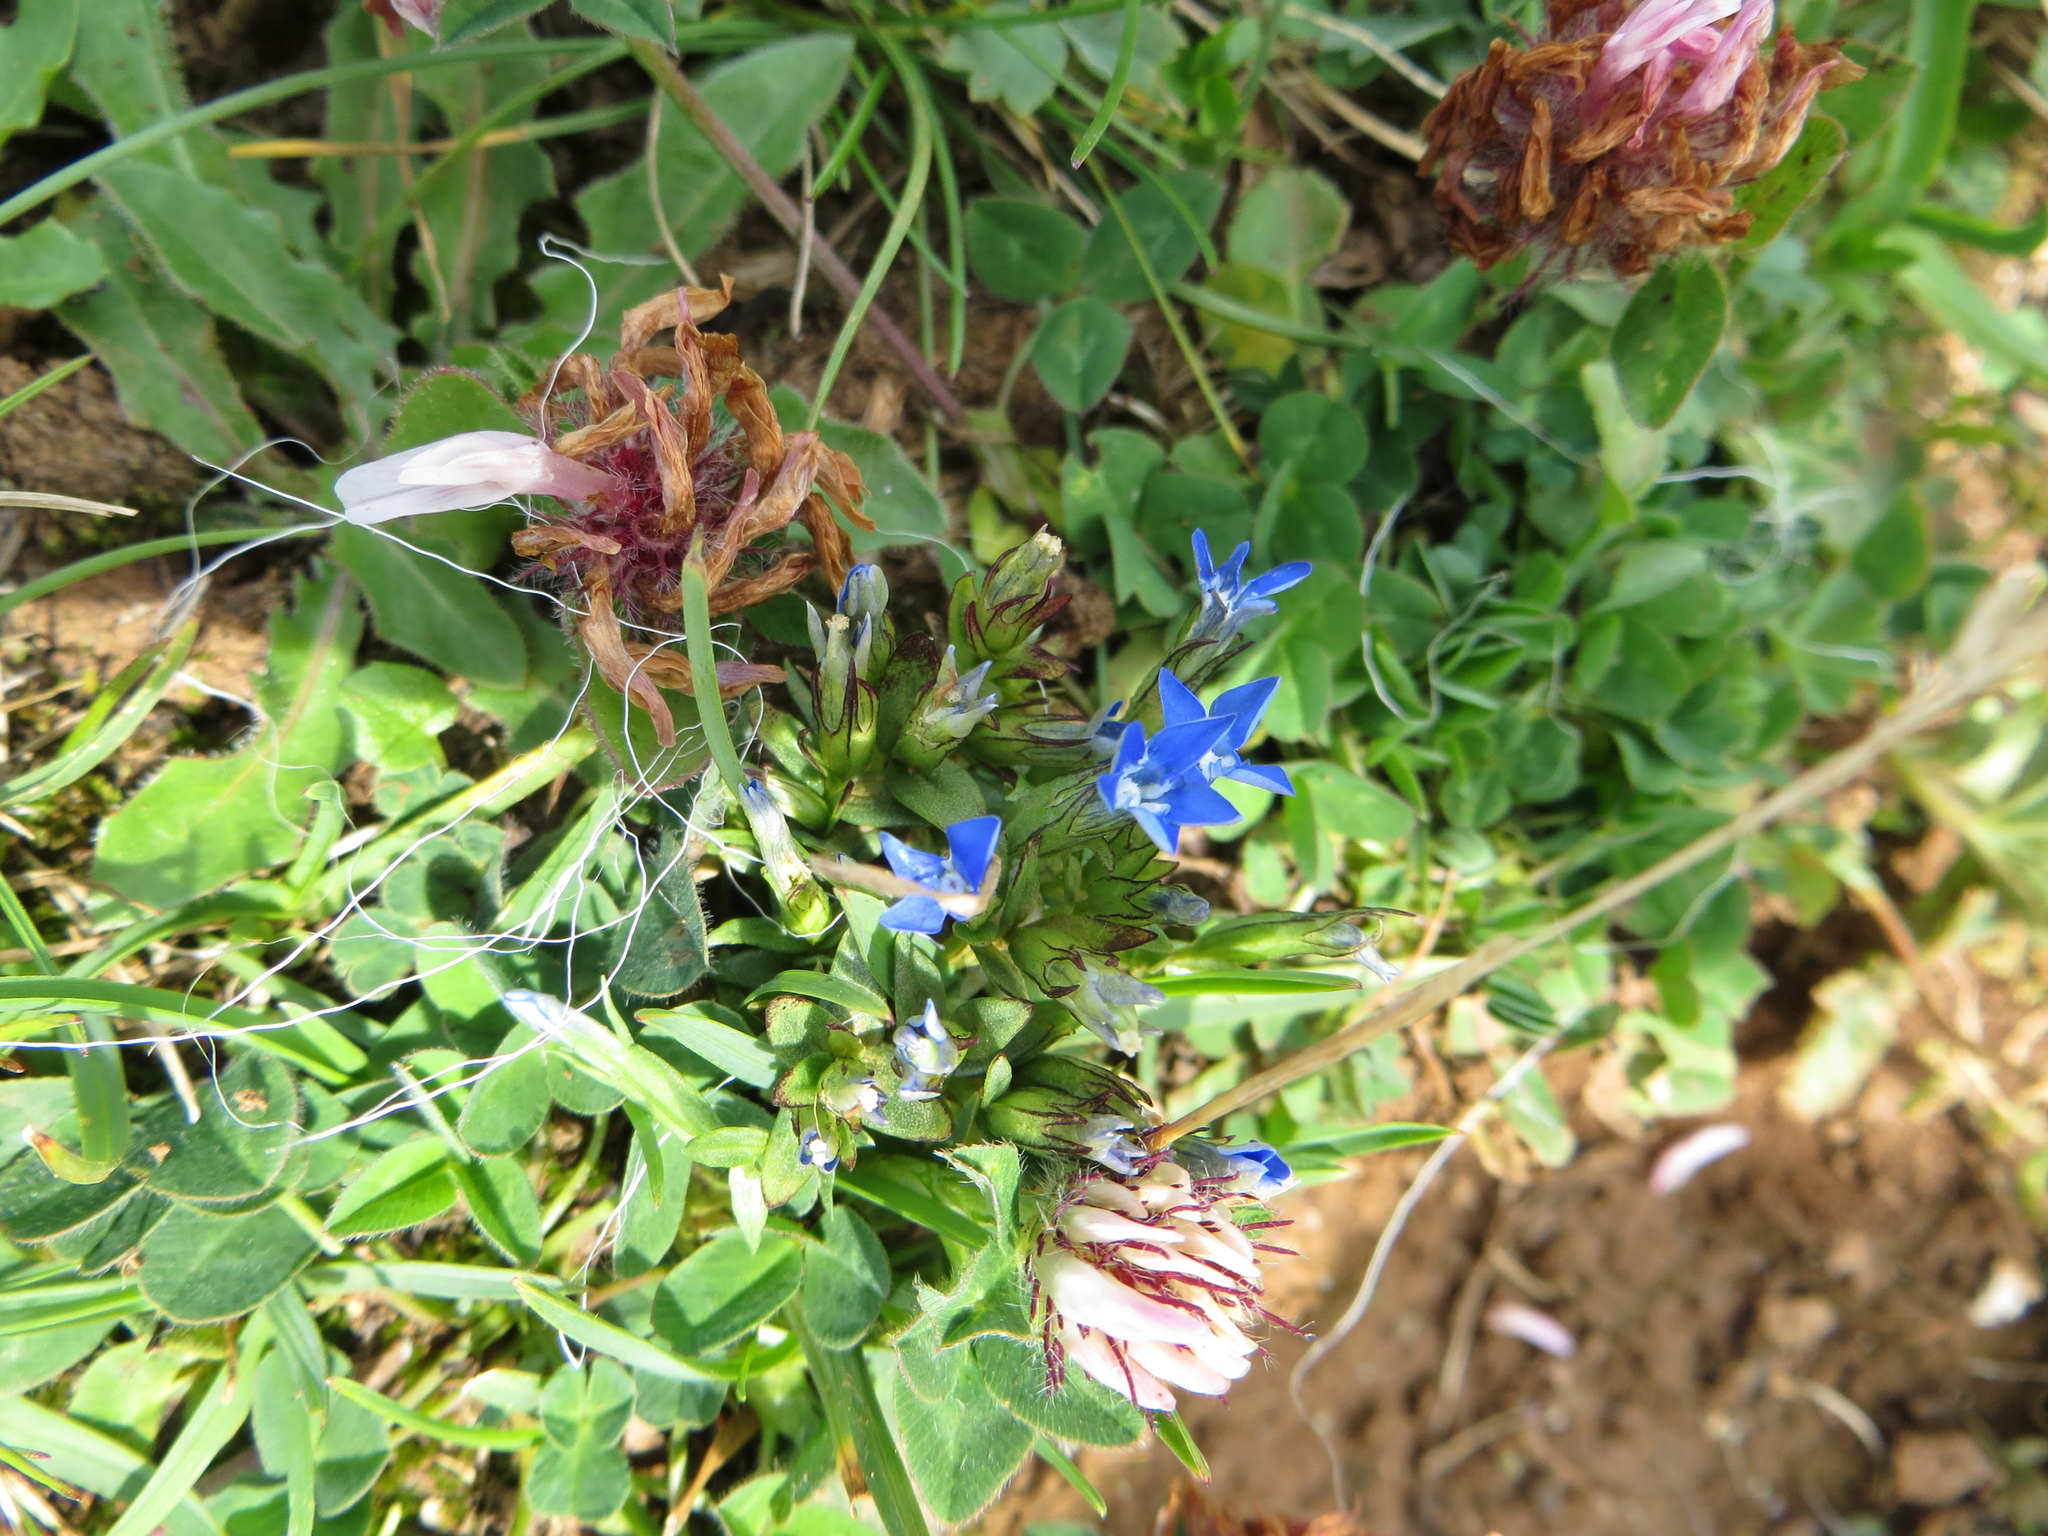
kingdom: Plantae
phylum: Tracheophyta
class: Magnoliopsida
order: Gentianales
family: Gentianaceae
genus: Gentiana
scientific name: Gentiana nivalis
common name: Alpine gentian
